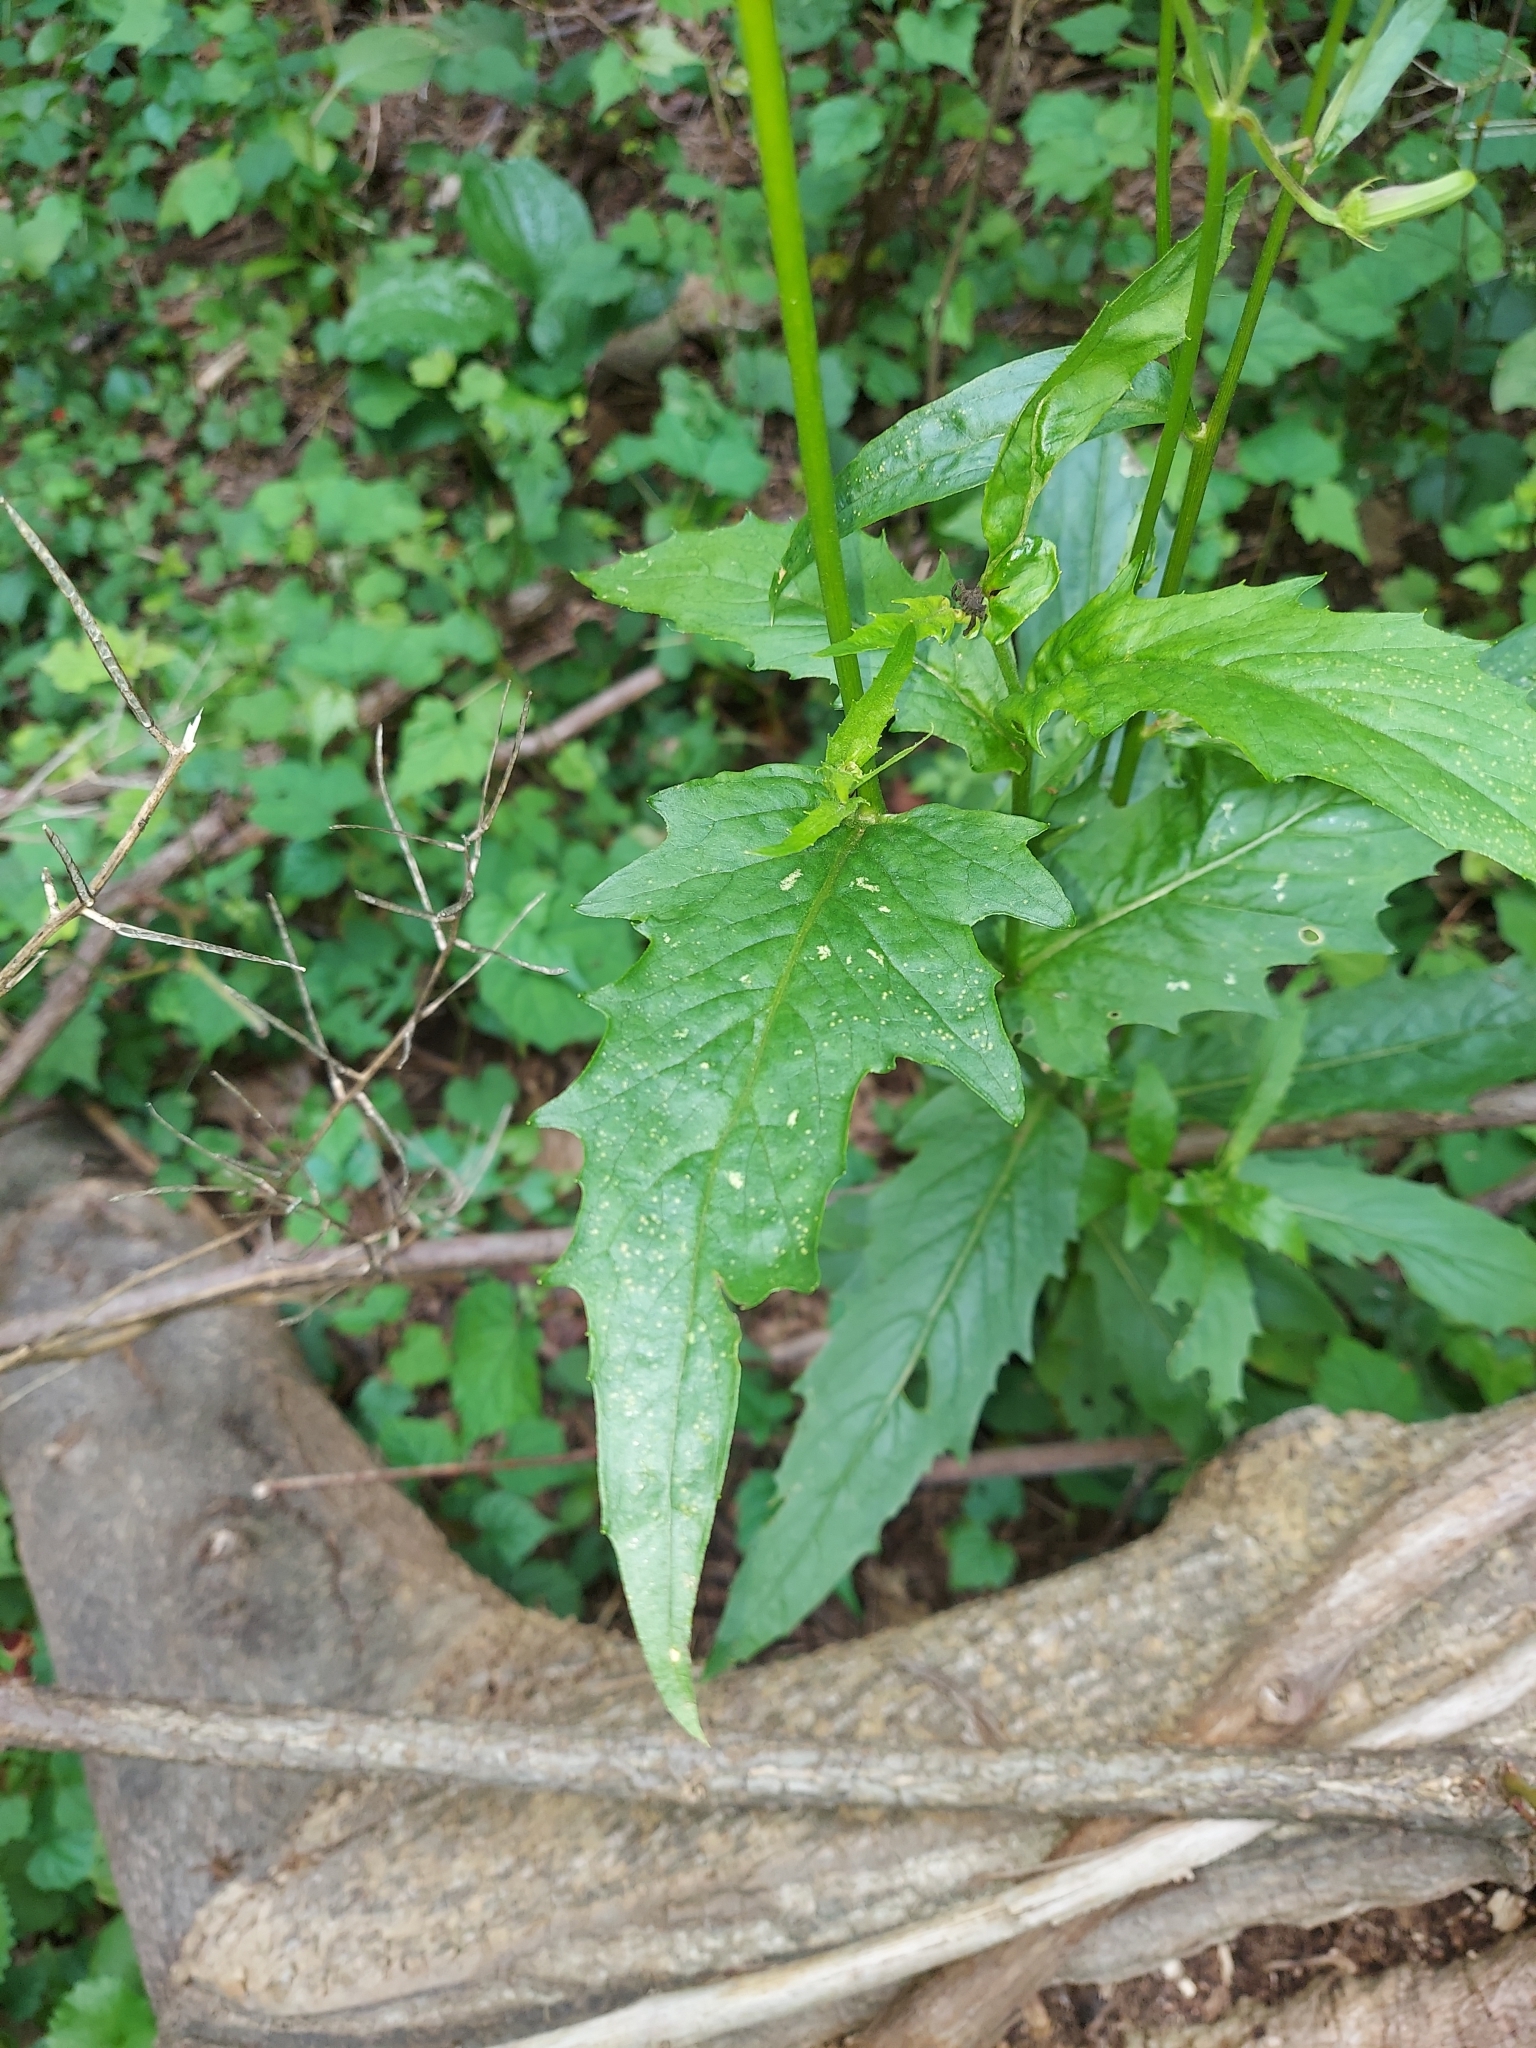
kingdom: Plantae
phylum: Tracheophyta
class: Magnoliopsida
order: Asterales
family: Asteraceae
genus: Erechtites
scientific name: Erechtites hieraciifolius
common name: American burnweed
